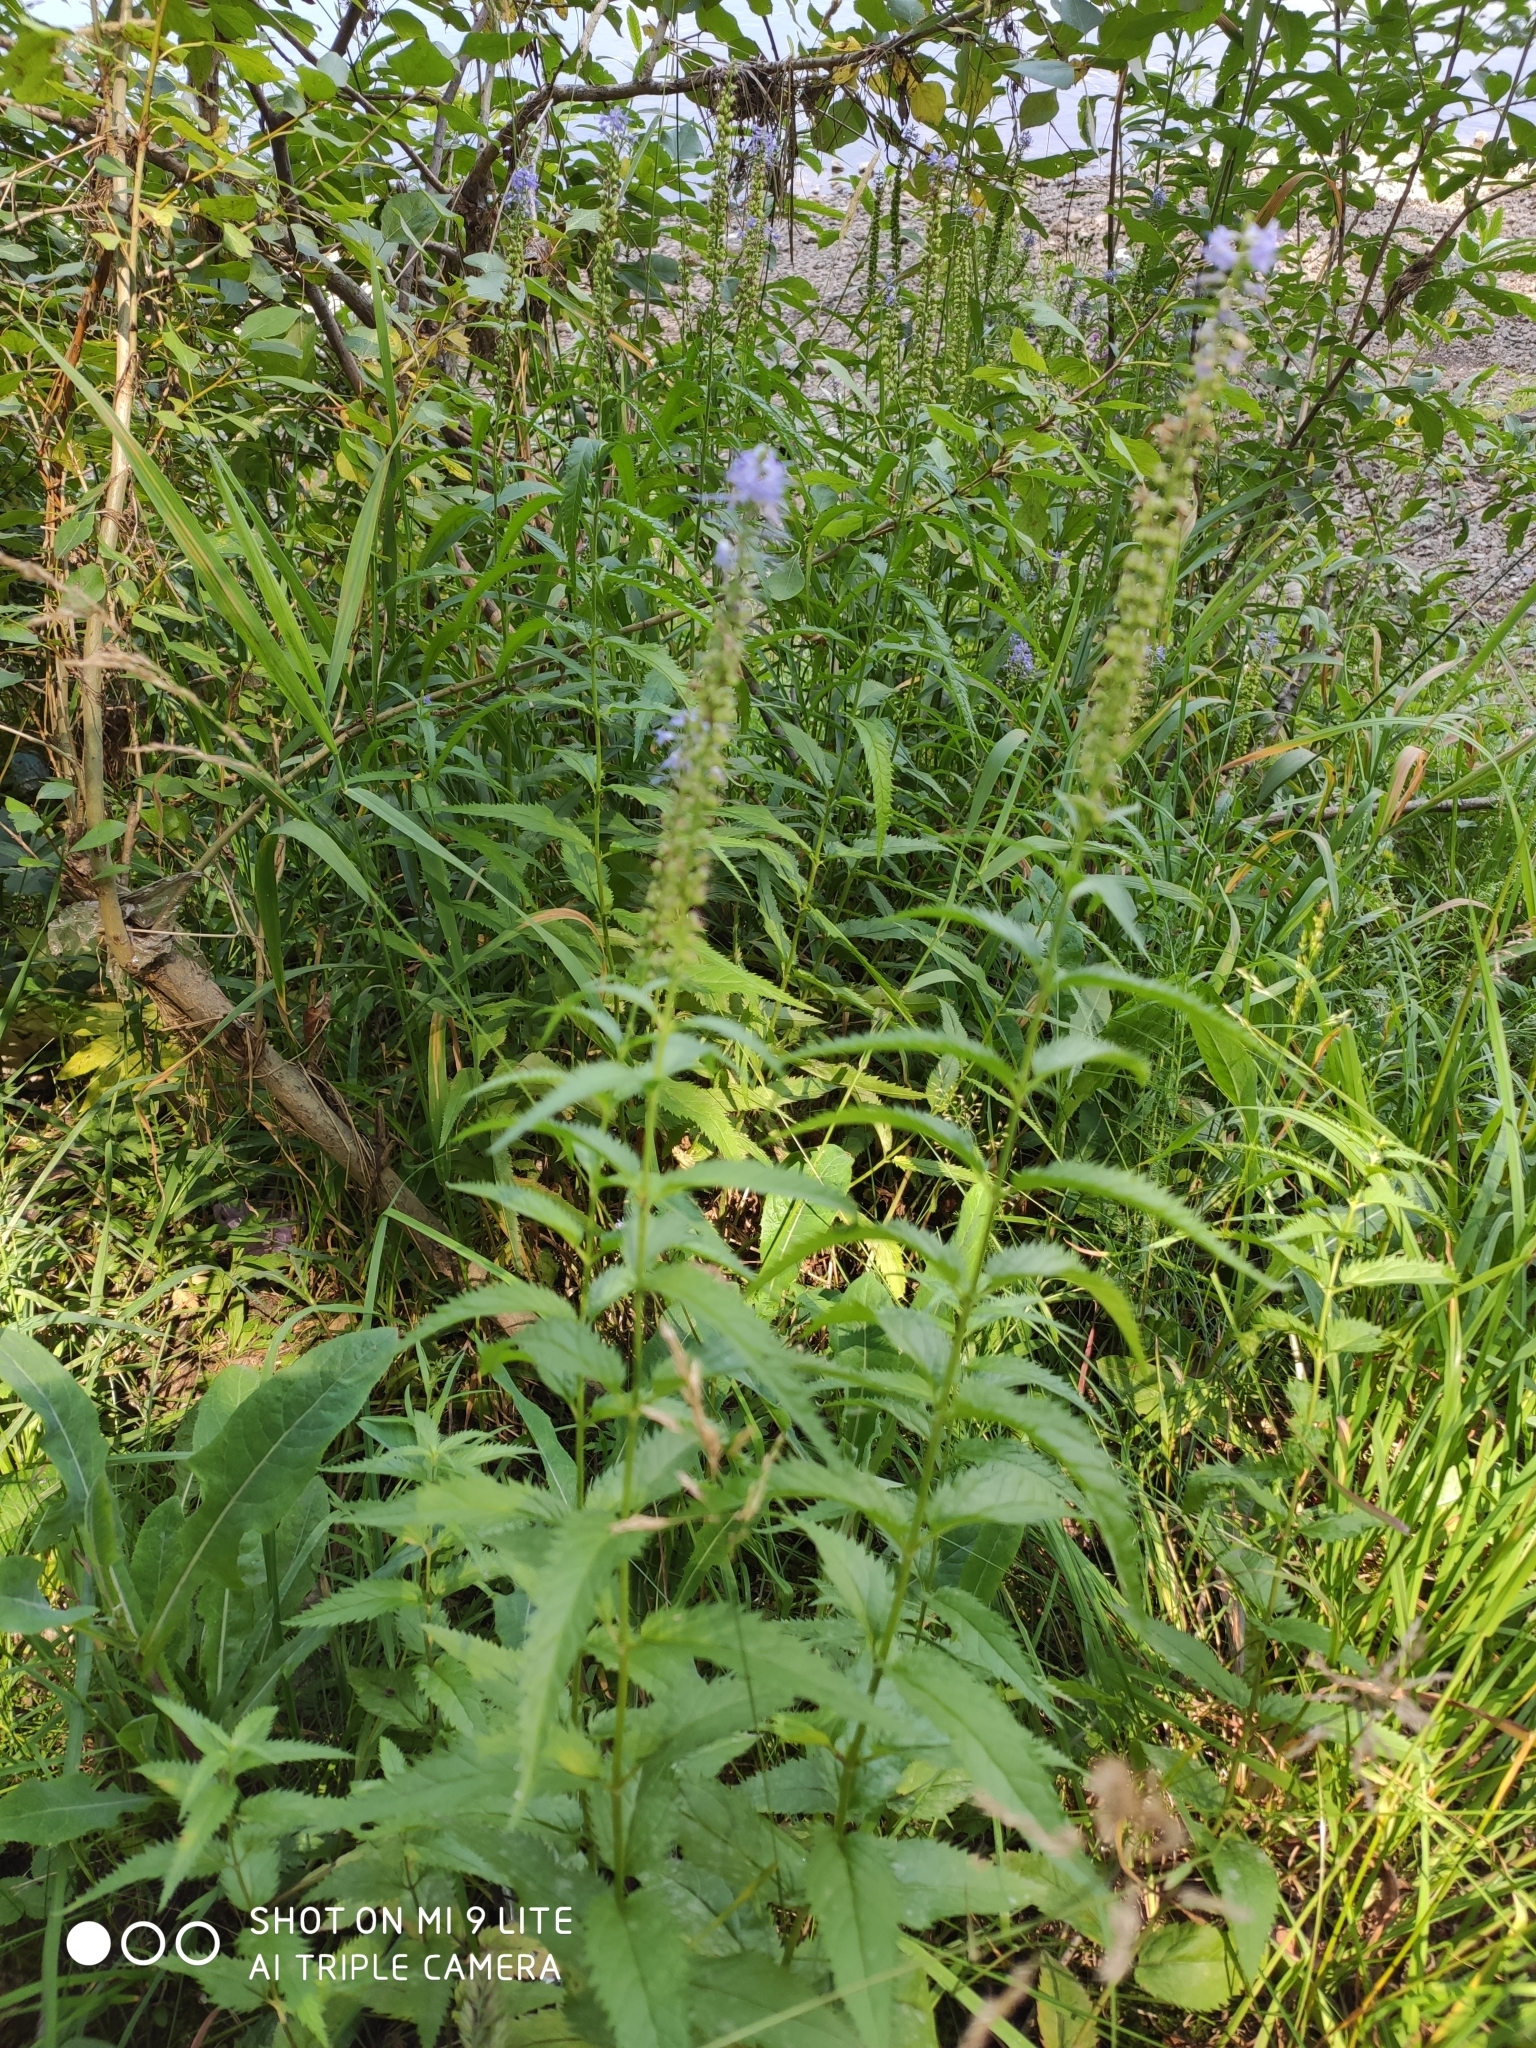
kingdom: Plantae
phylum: Tracheophyta
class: Magnoliopsida
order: Lamiales
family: Plantaginaceae
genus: Veronica
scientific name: Veronica longifolia
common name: Garden speedwell
